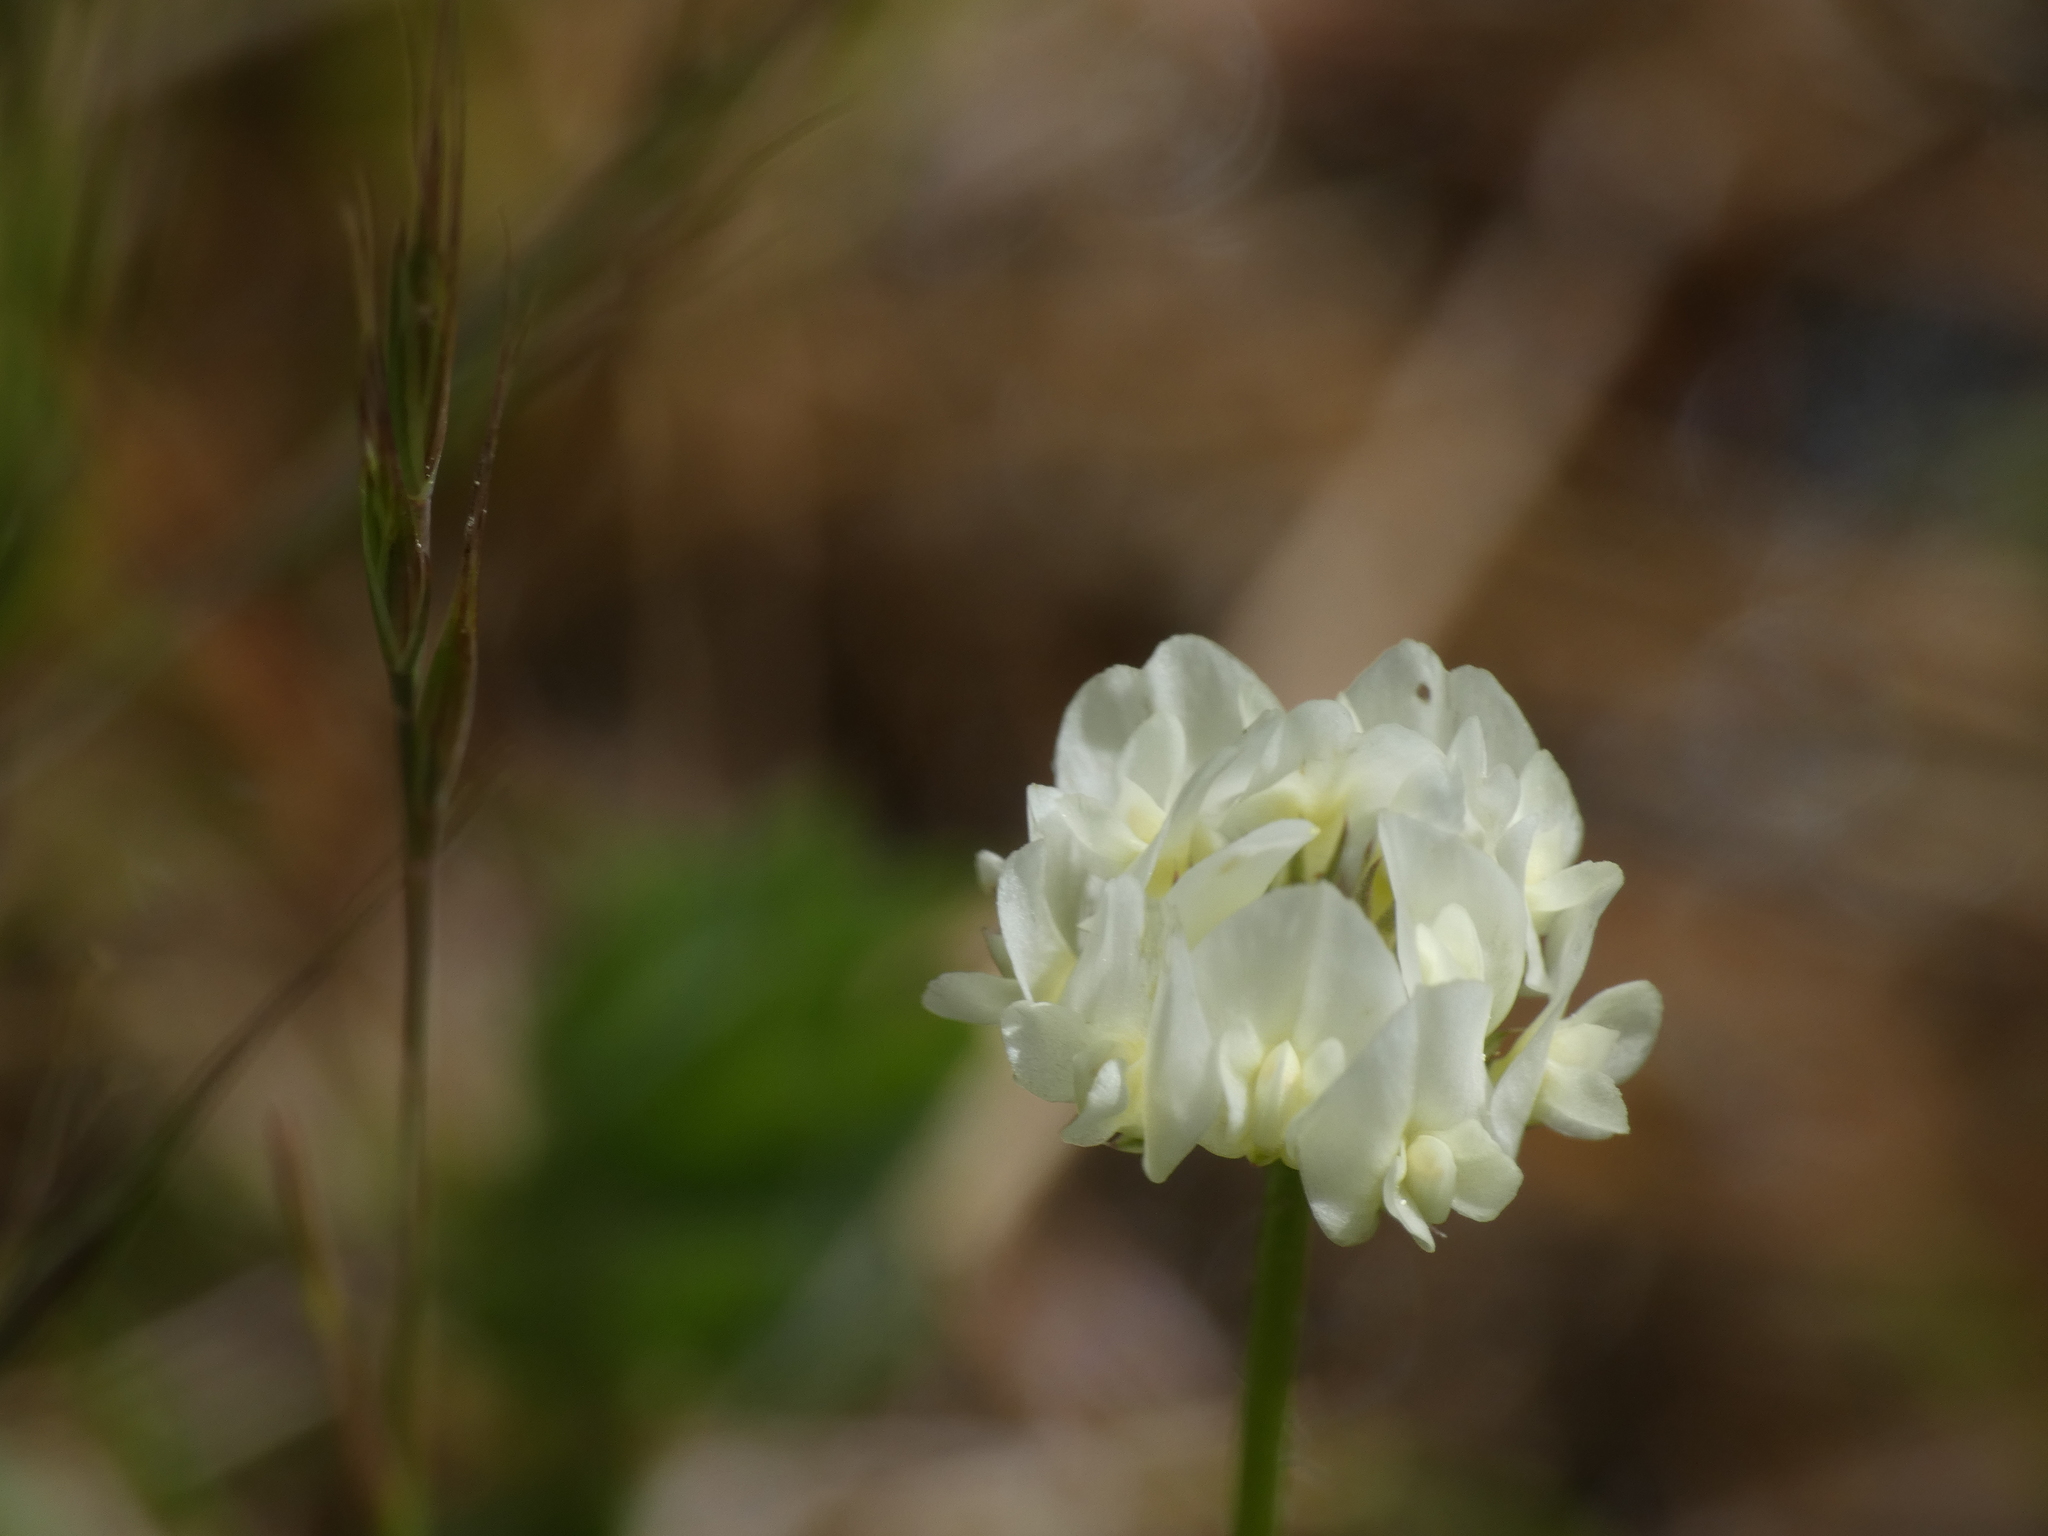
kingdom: Plantae
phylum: Tracheophyta
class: Magnoliopsida
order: Fabales
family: Fabaceae
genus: Trifolium
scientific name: Trifolium nigrescens
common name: Small white clover
